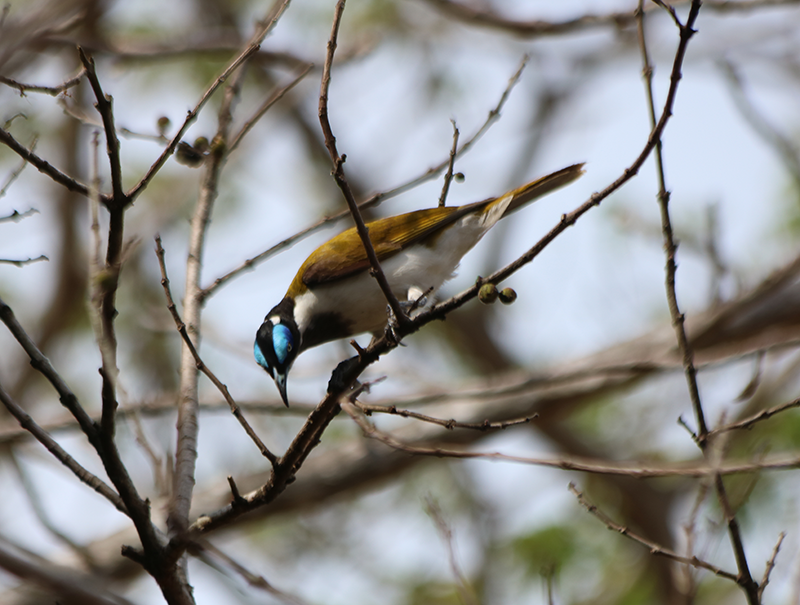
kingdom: Animalia
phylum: Chordata
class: Aves
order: Passeriformes
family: Meliphagidae
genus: Entomyzon
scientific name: Entomyzon cyanotis
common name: Blue-faced honeyeater
